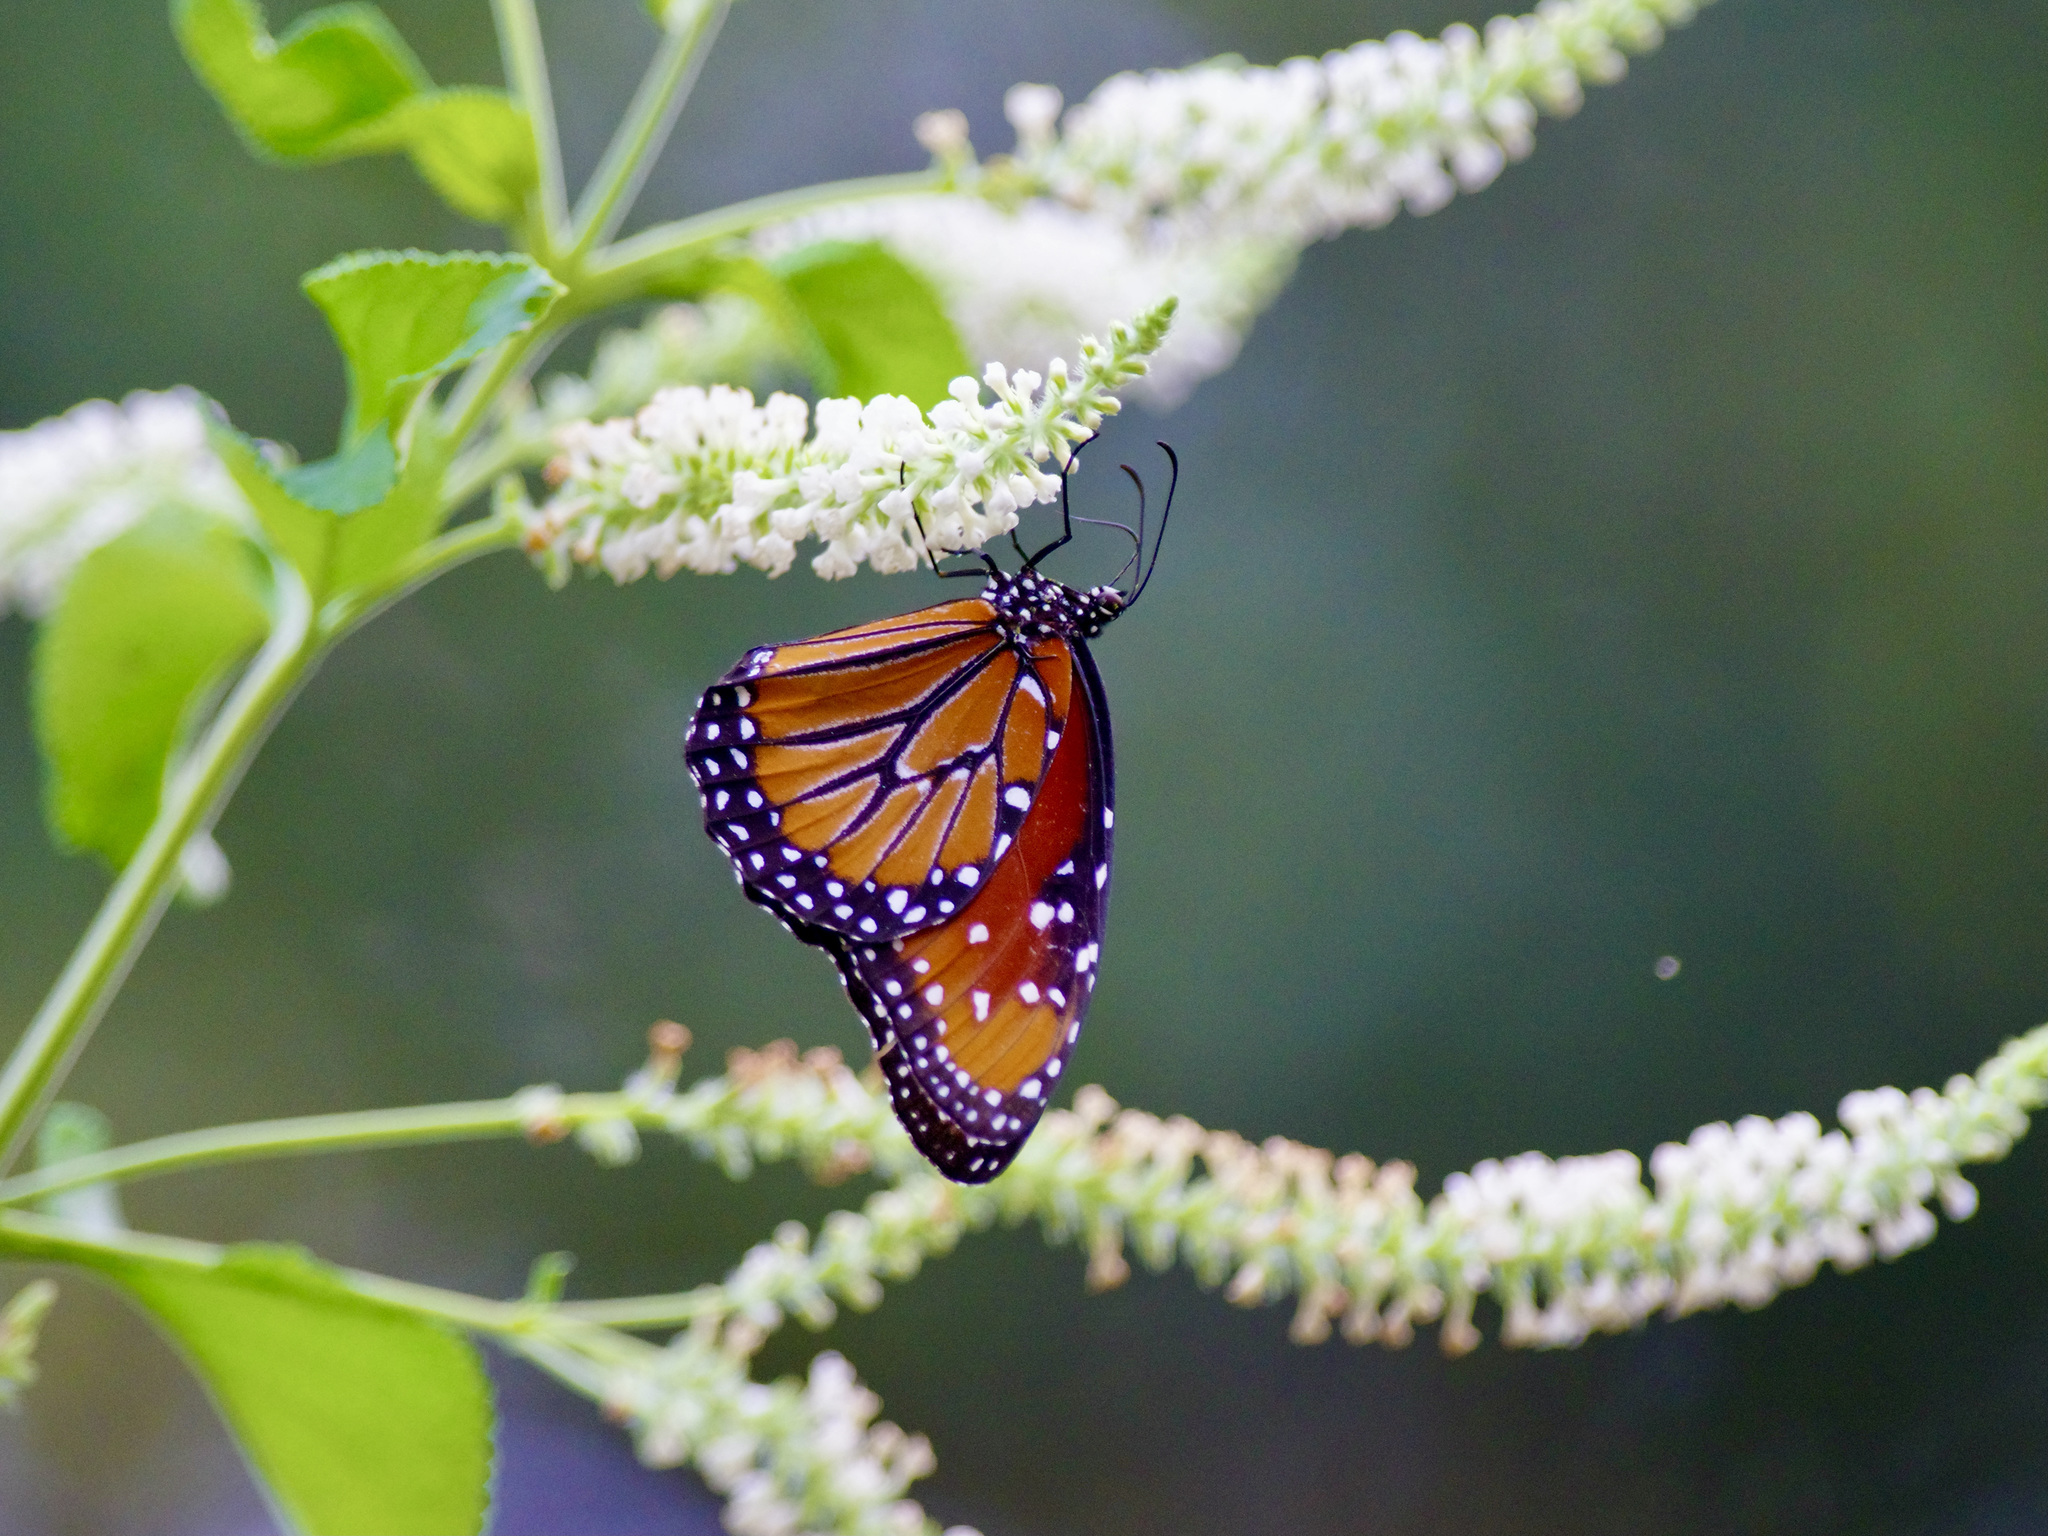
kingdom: Animalia
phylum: Arthropoda
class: Insecta
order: Lepidoptera
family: Nymphalidae
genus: Danaus
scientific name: Danaus gilippus
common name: Queen
